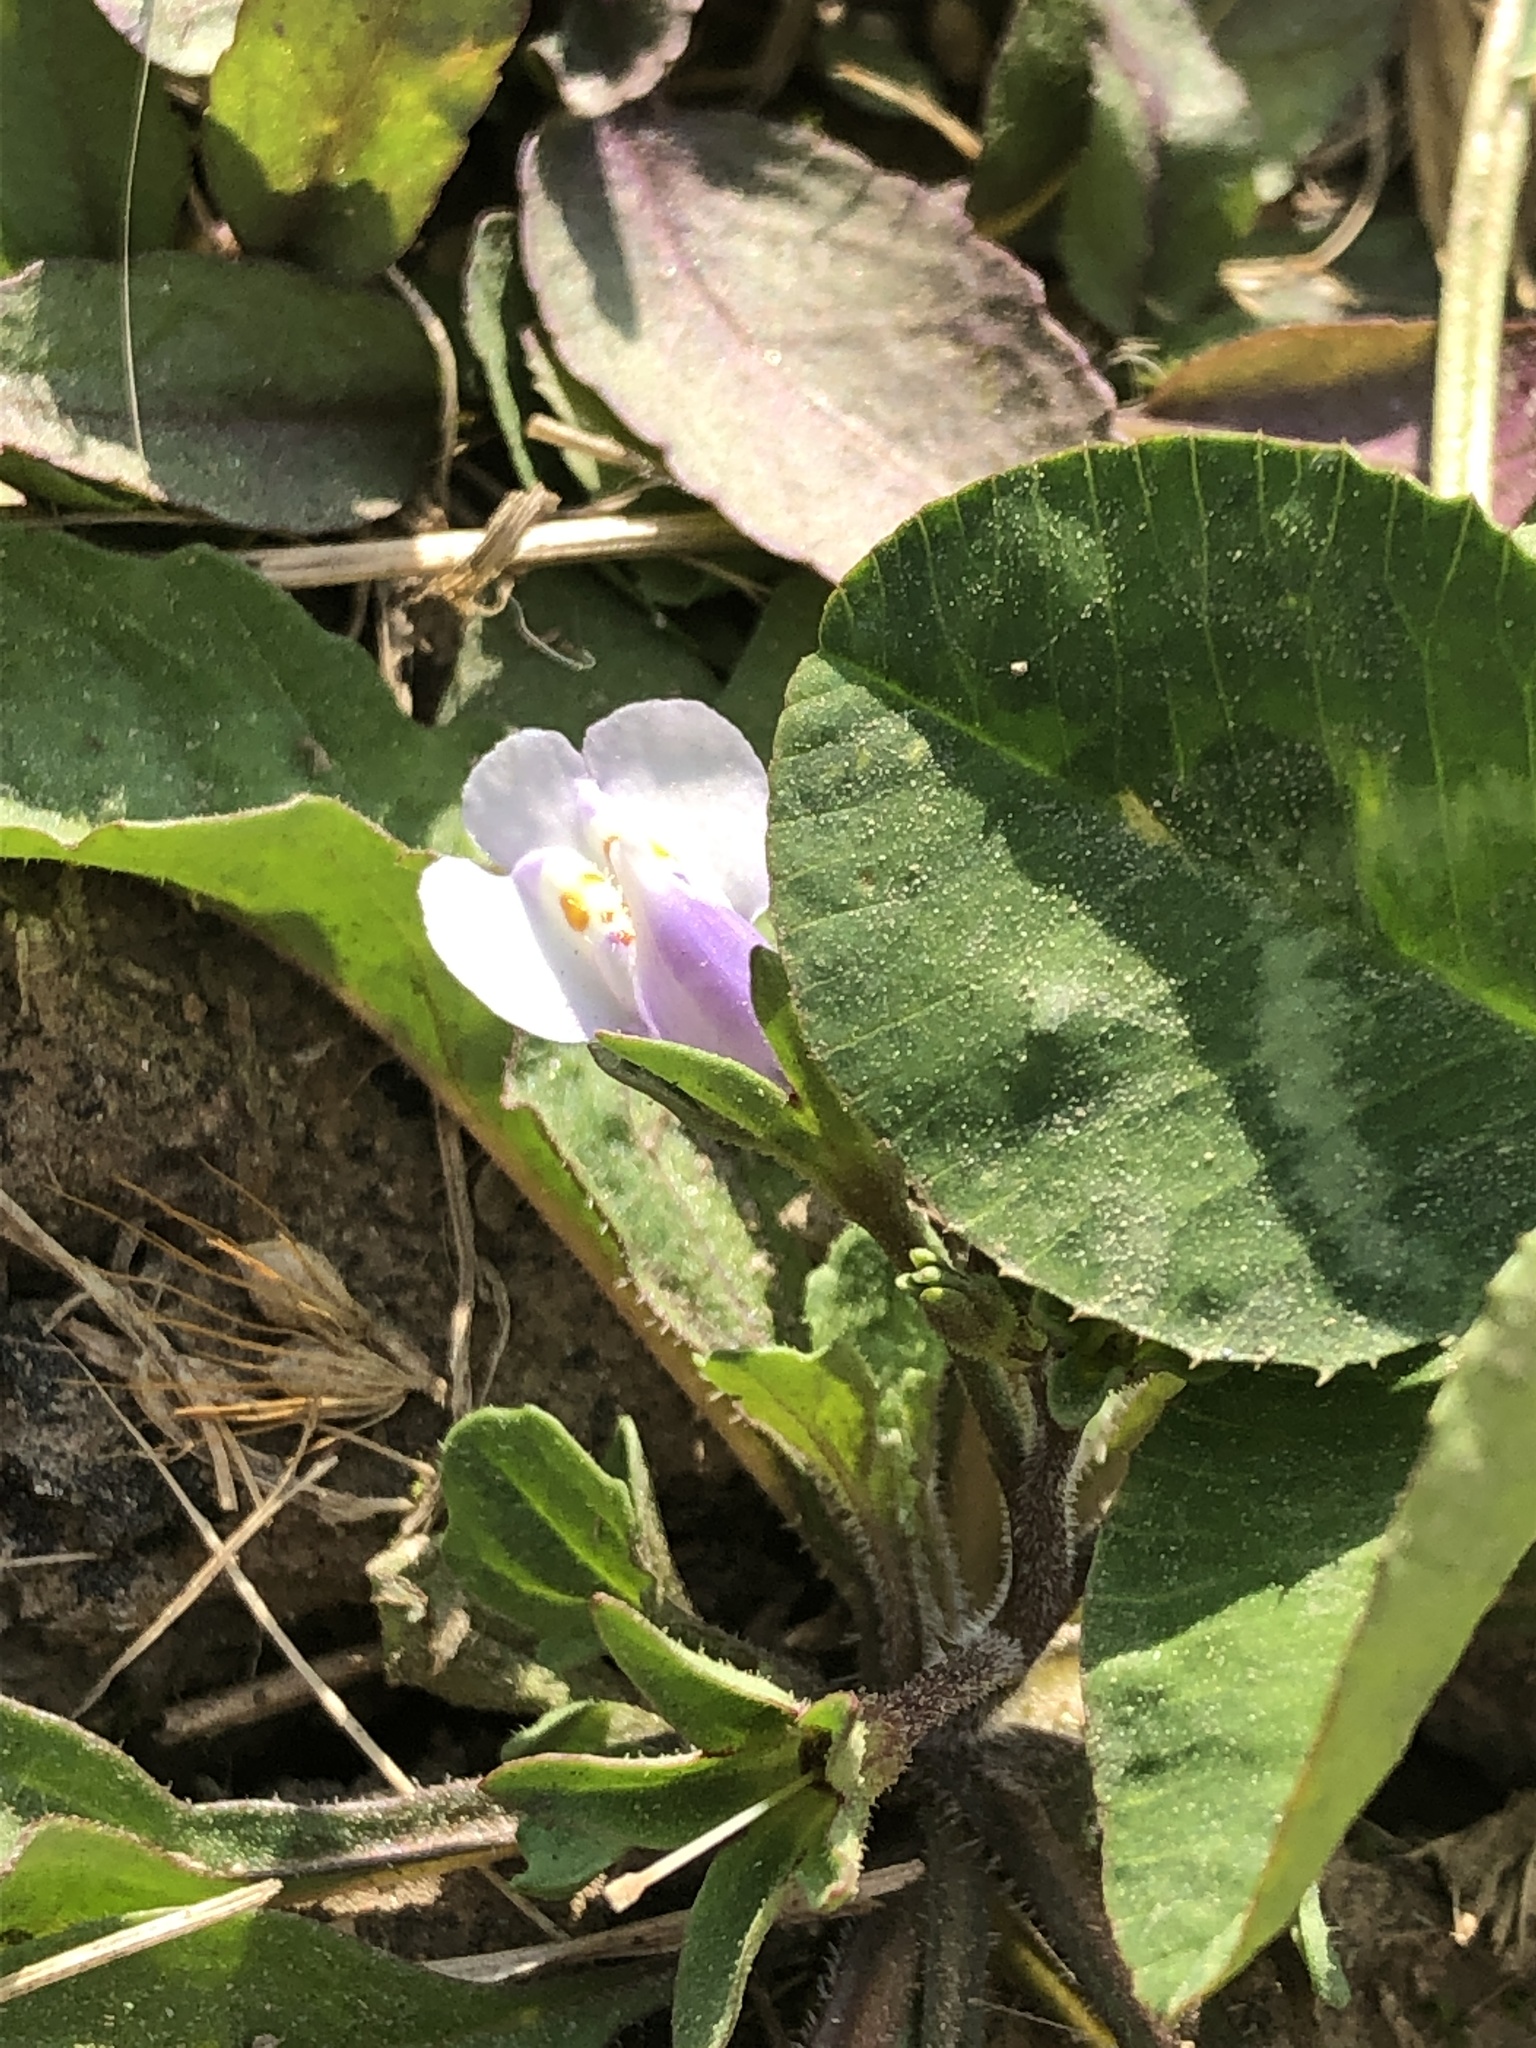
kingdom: Plantae
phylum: Tracheophyta
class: Magnoliopsida
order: Lamiales
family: Mazaceae
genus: Mazus
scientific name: Mazus pumilus
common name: Japanese mazus
